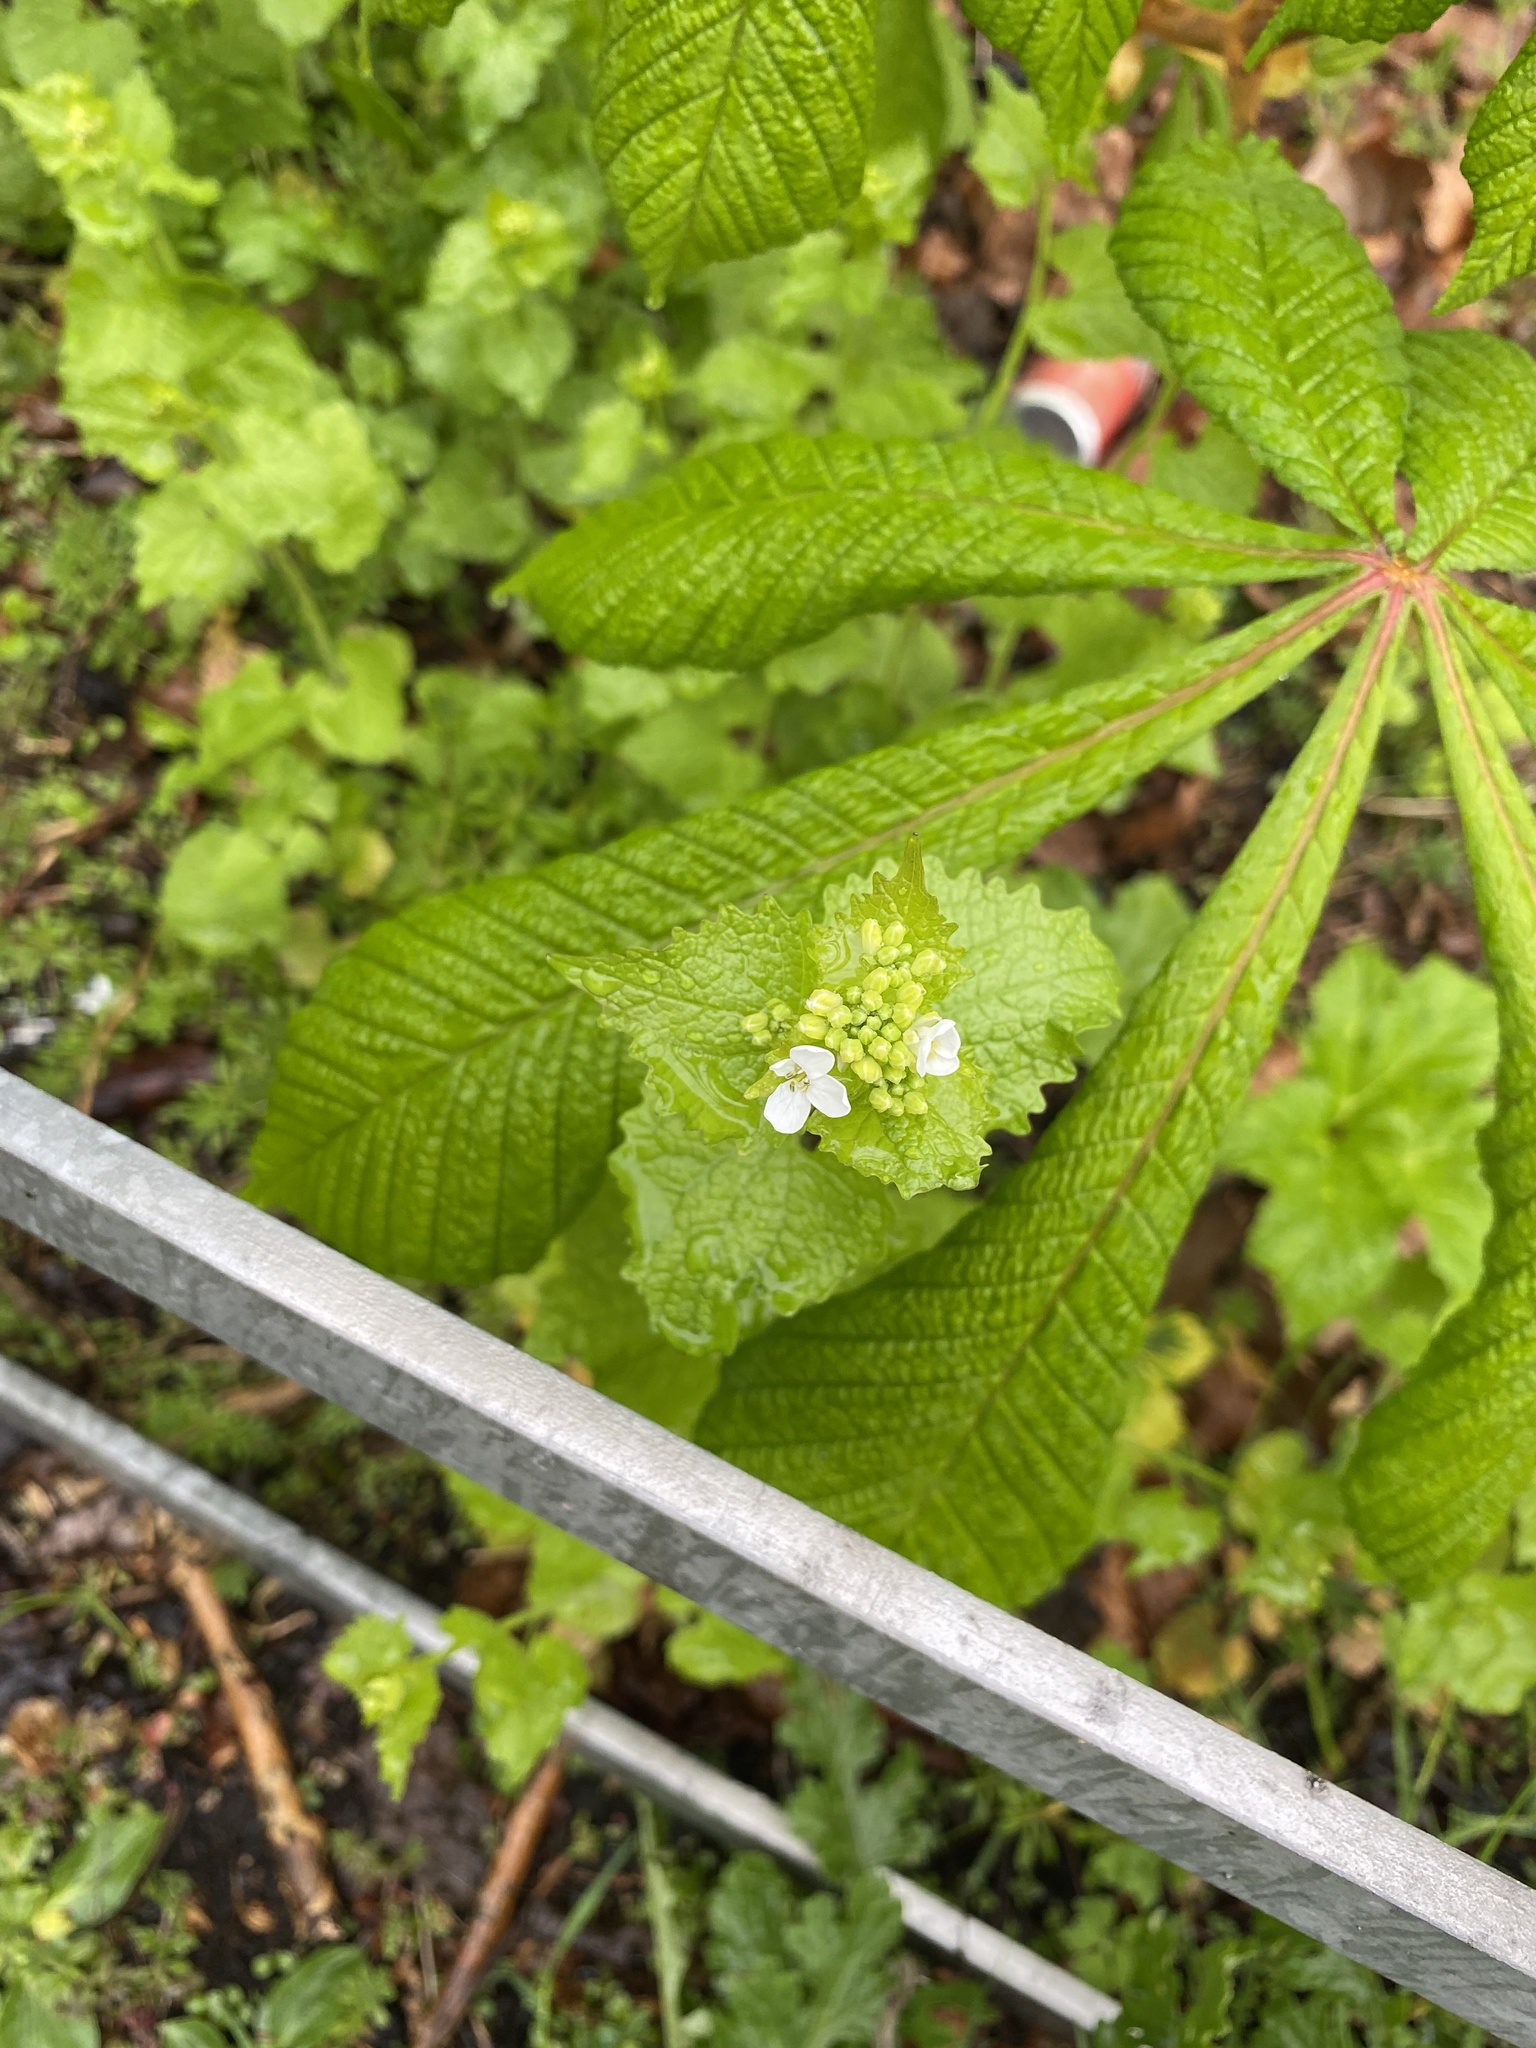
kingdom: Plantae
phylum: Tracheophyta
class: Magnoliopsida
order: Brassicales
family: Brassicaceae
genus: Alliaria
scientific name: Alliaria petiolata
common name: Garlic mustard
